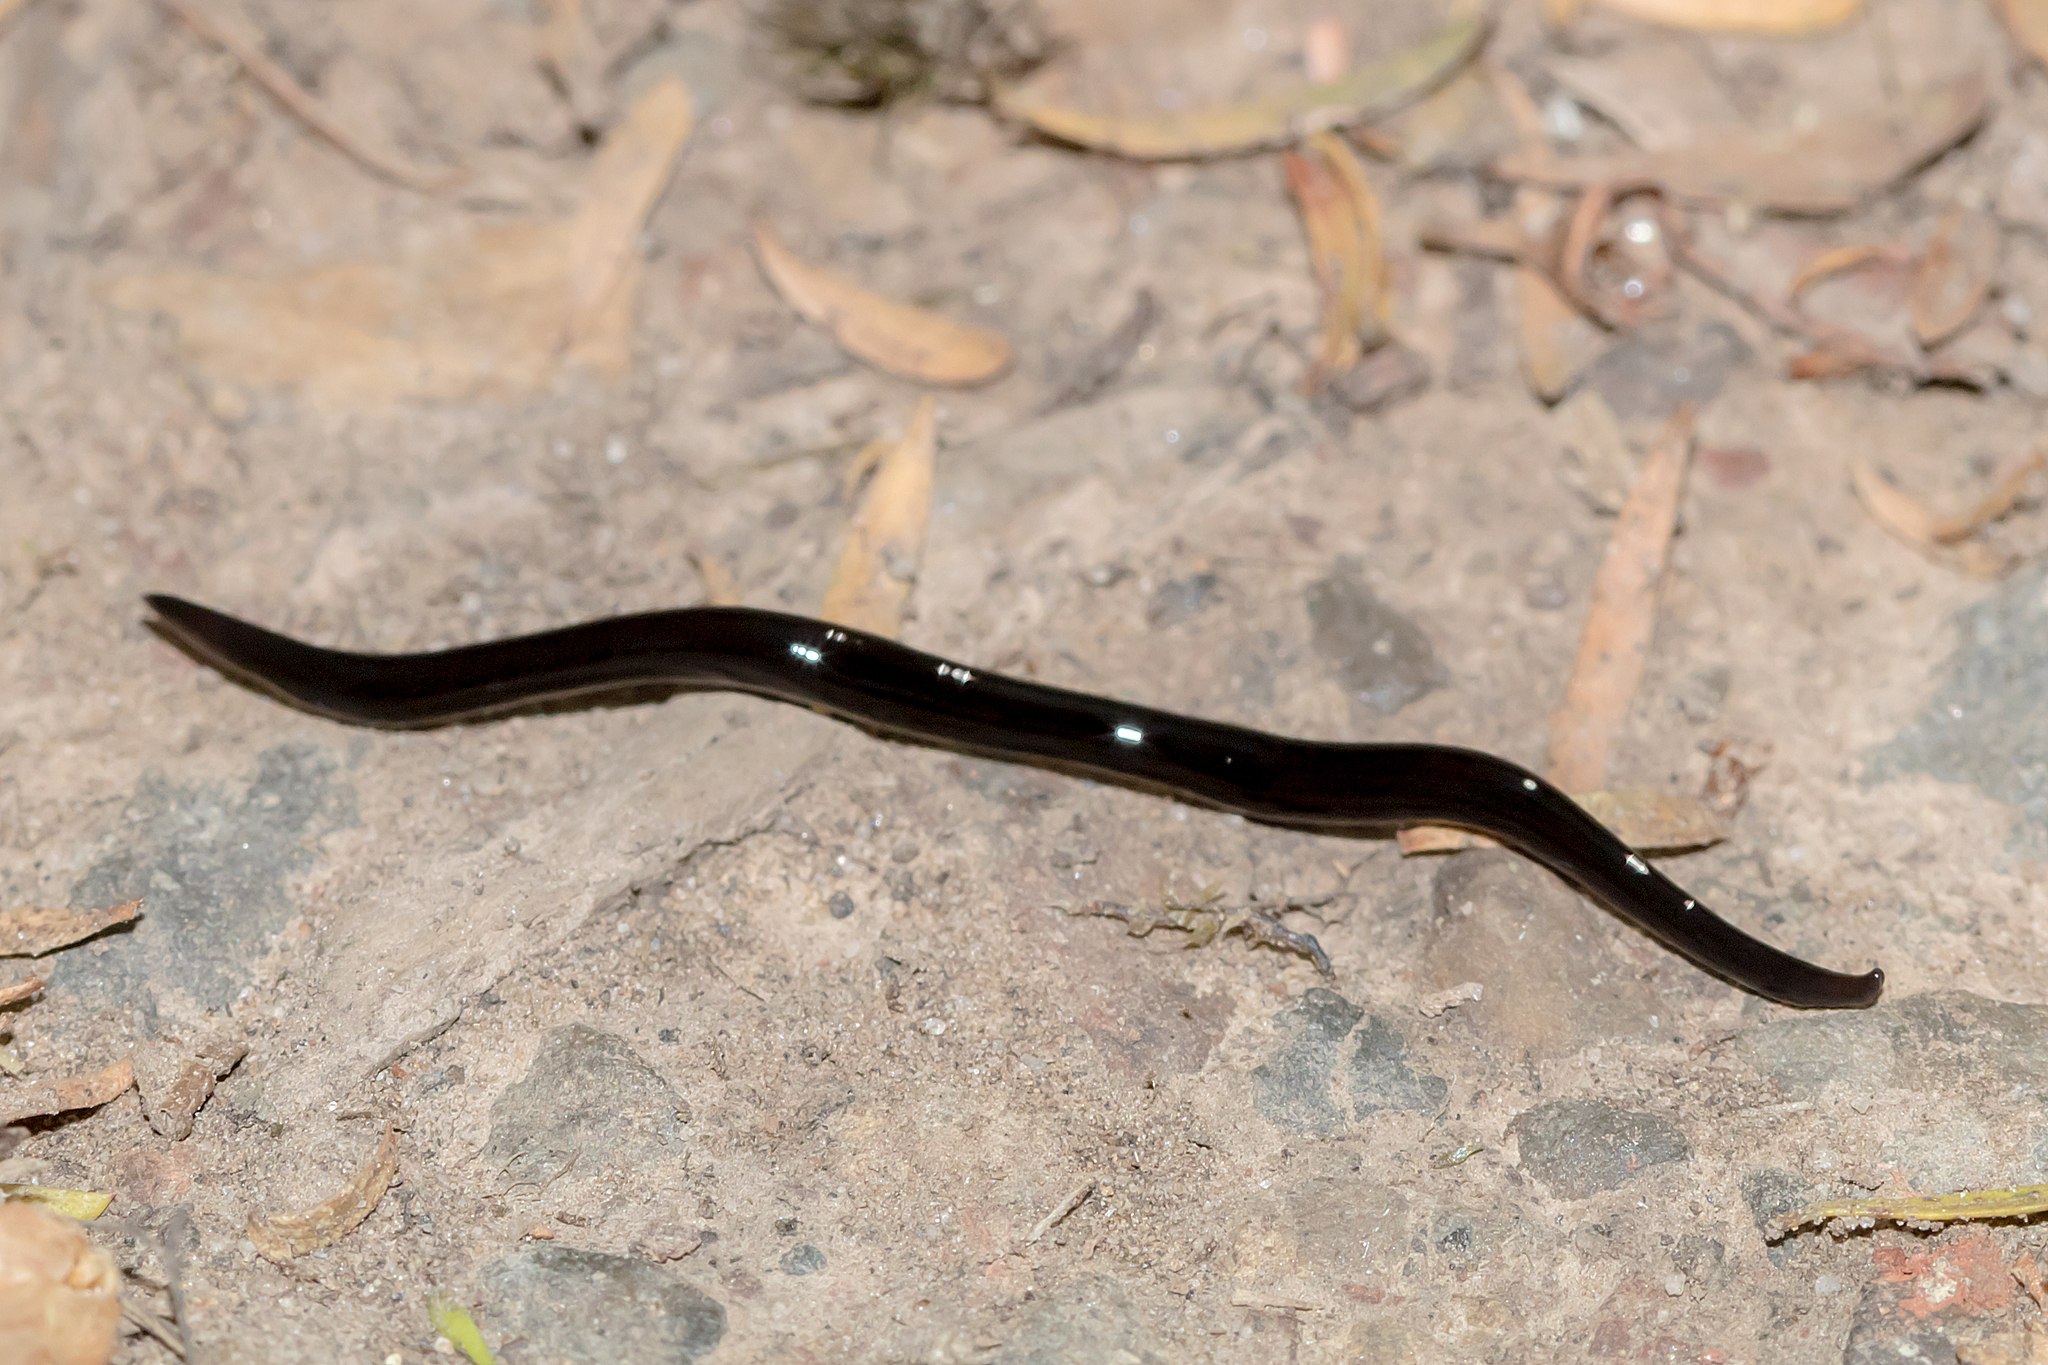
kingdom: Animalia
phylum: Platyhelminthes
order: Tricladida
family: Geoplanidae
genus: Kontikia
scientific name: Kontikia atrata
